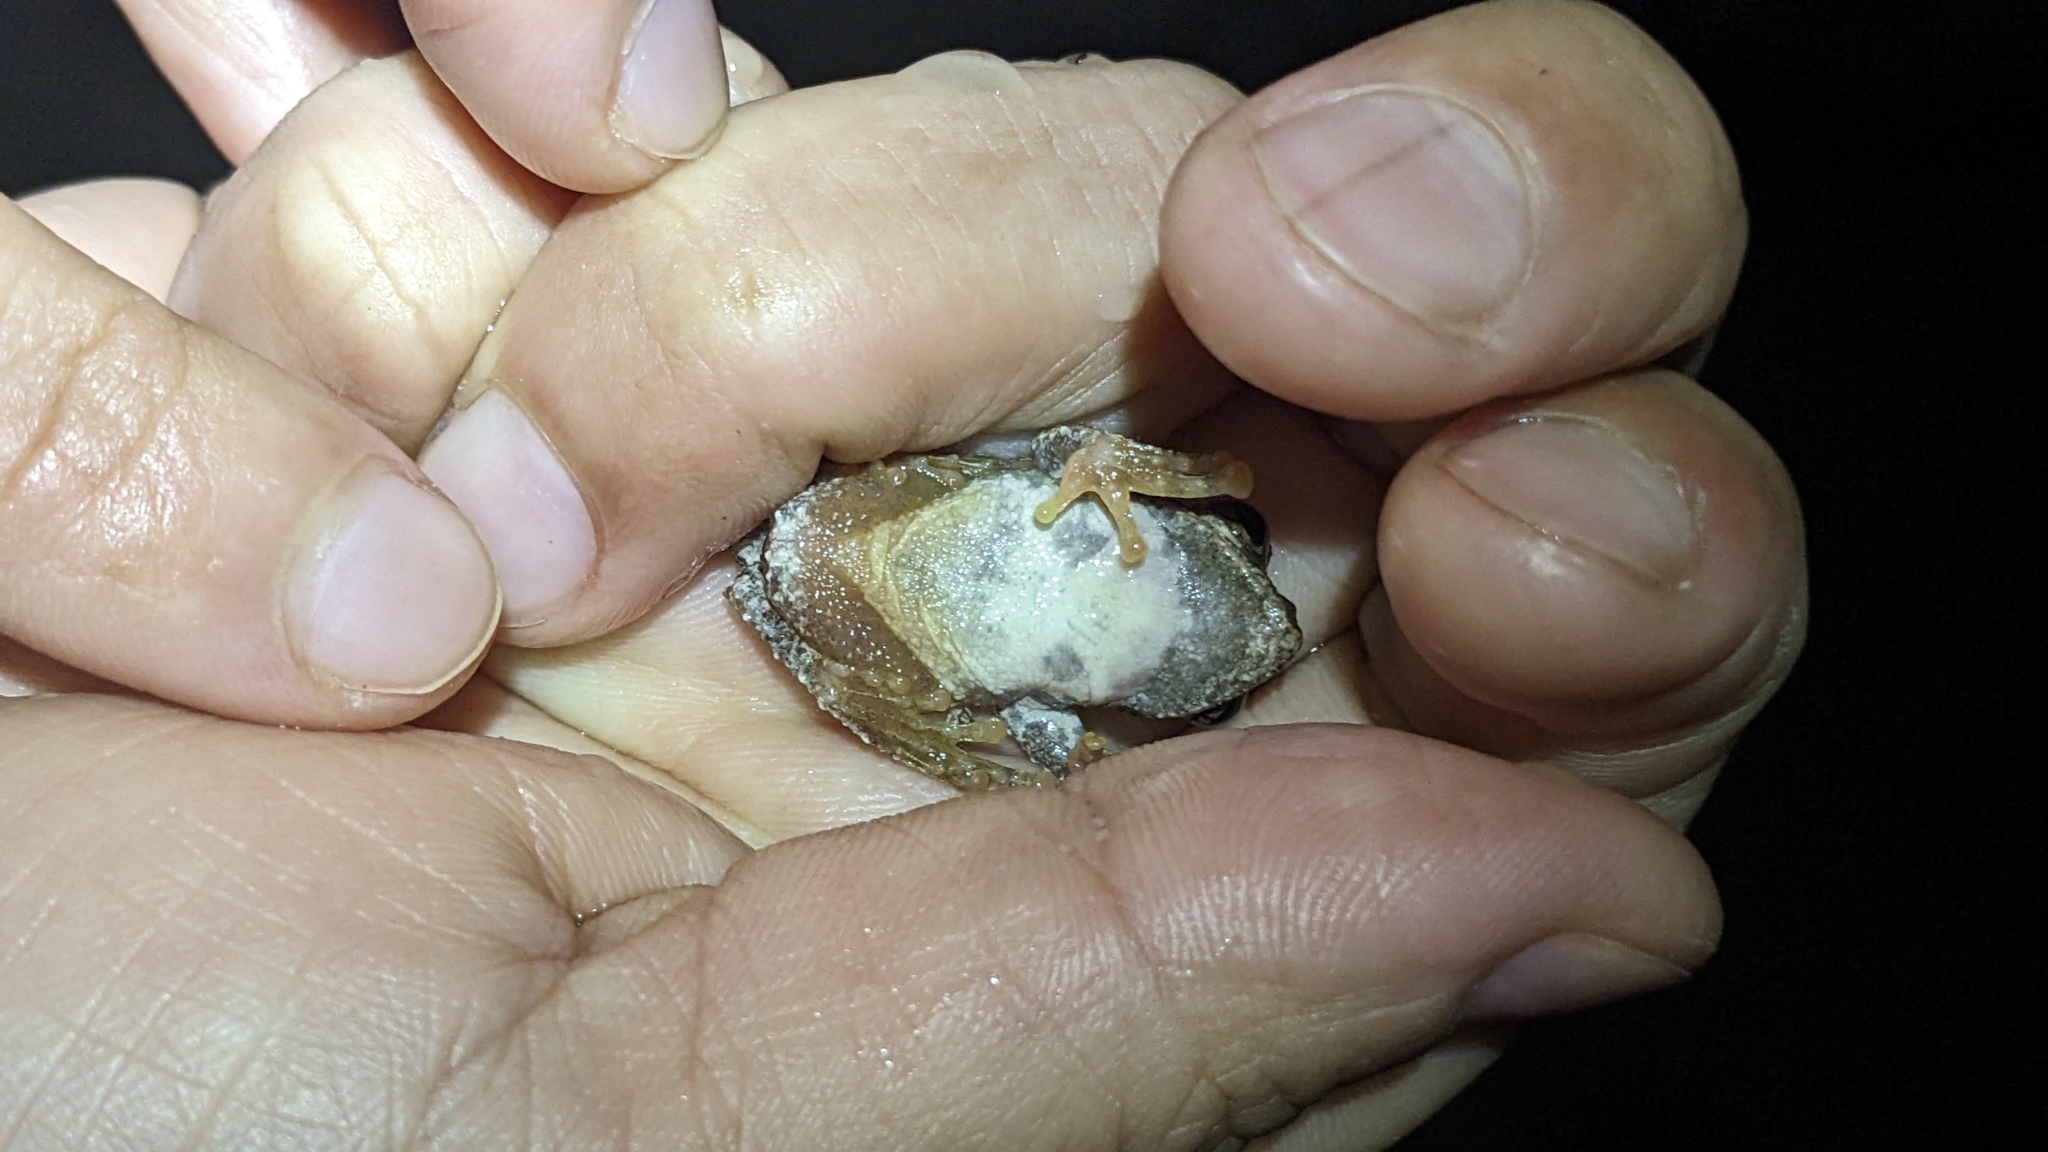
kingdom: Animalia
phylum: Chordata
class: Amphibia
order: Anura
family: Rhacophoridae
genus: Kurixalus
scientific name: Kurixalus idiootocus
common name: Temple treefrog
